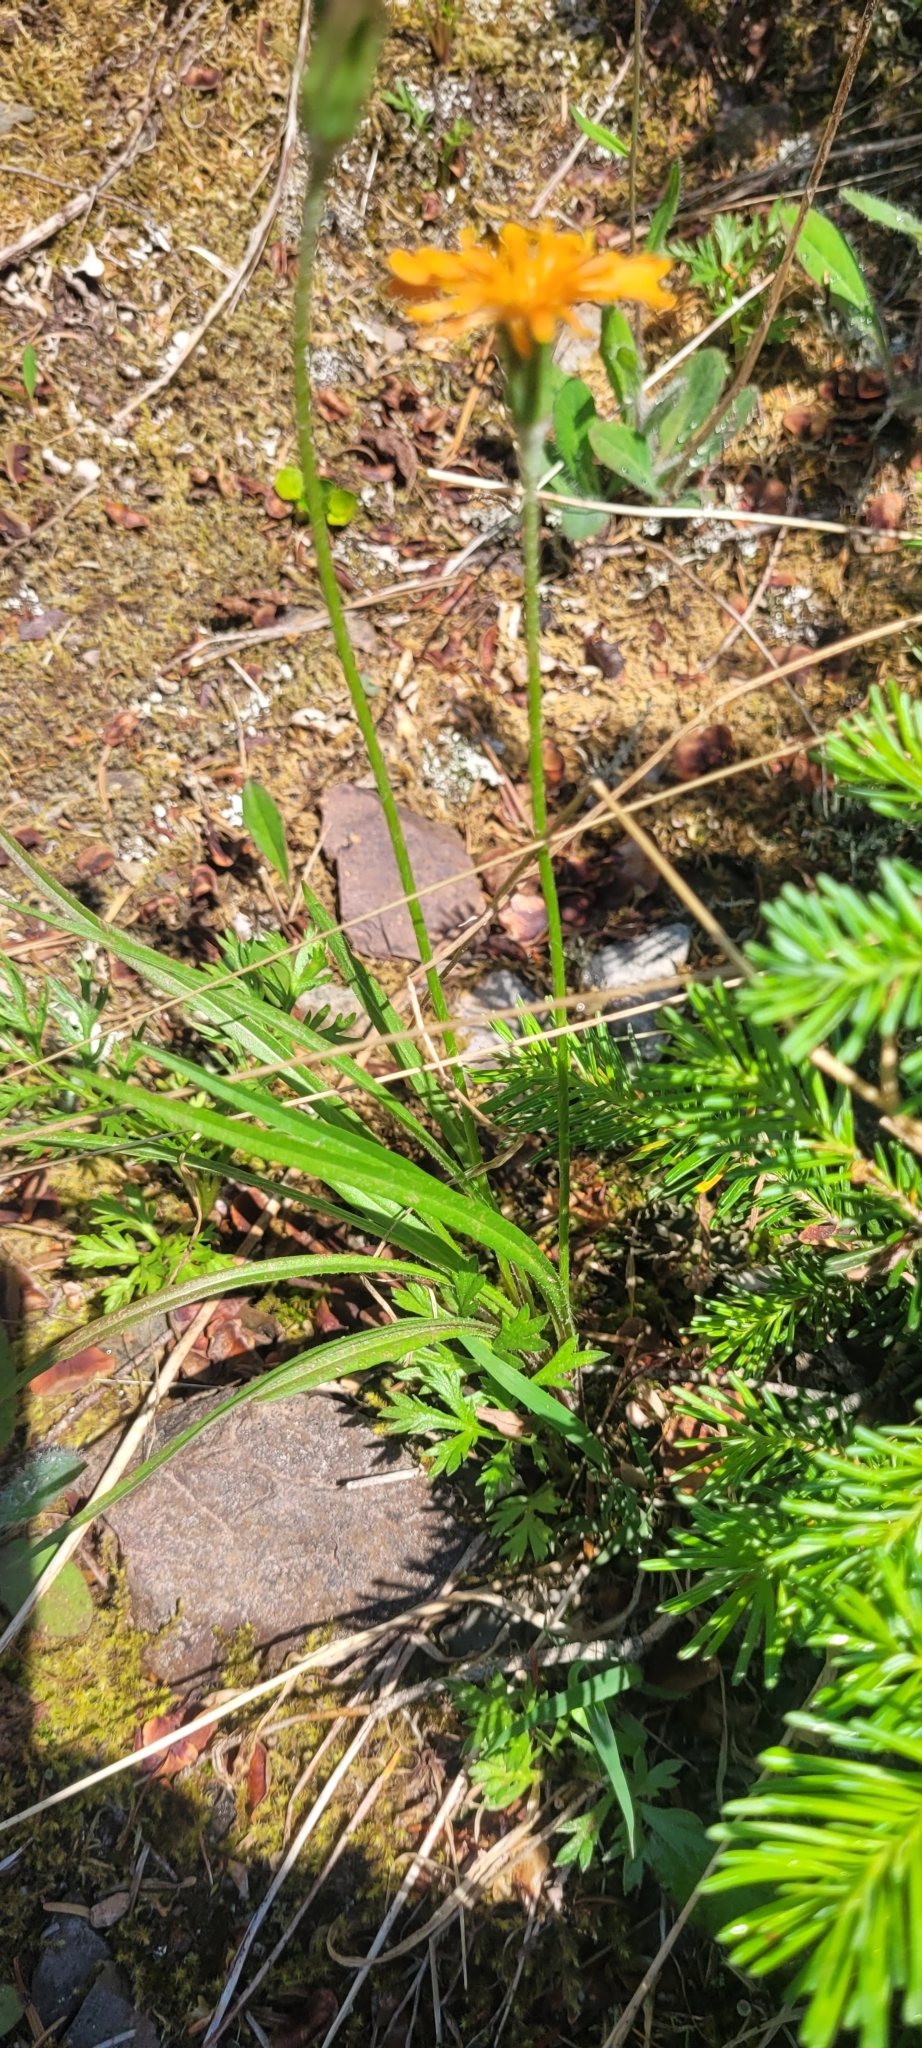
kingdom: Plantae
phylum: Tracheophyta
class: Magnoliopsida
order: Asterales
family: Asteraceae
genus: Agoseris
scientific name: Agoseris aurantiaca
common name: Mountain agoseris
